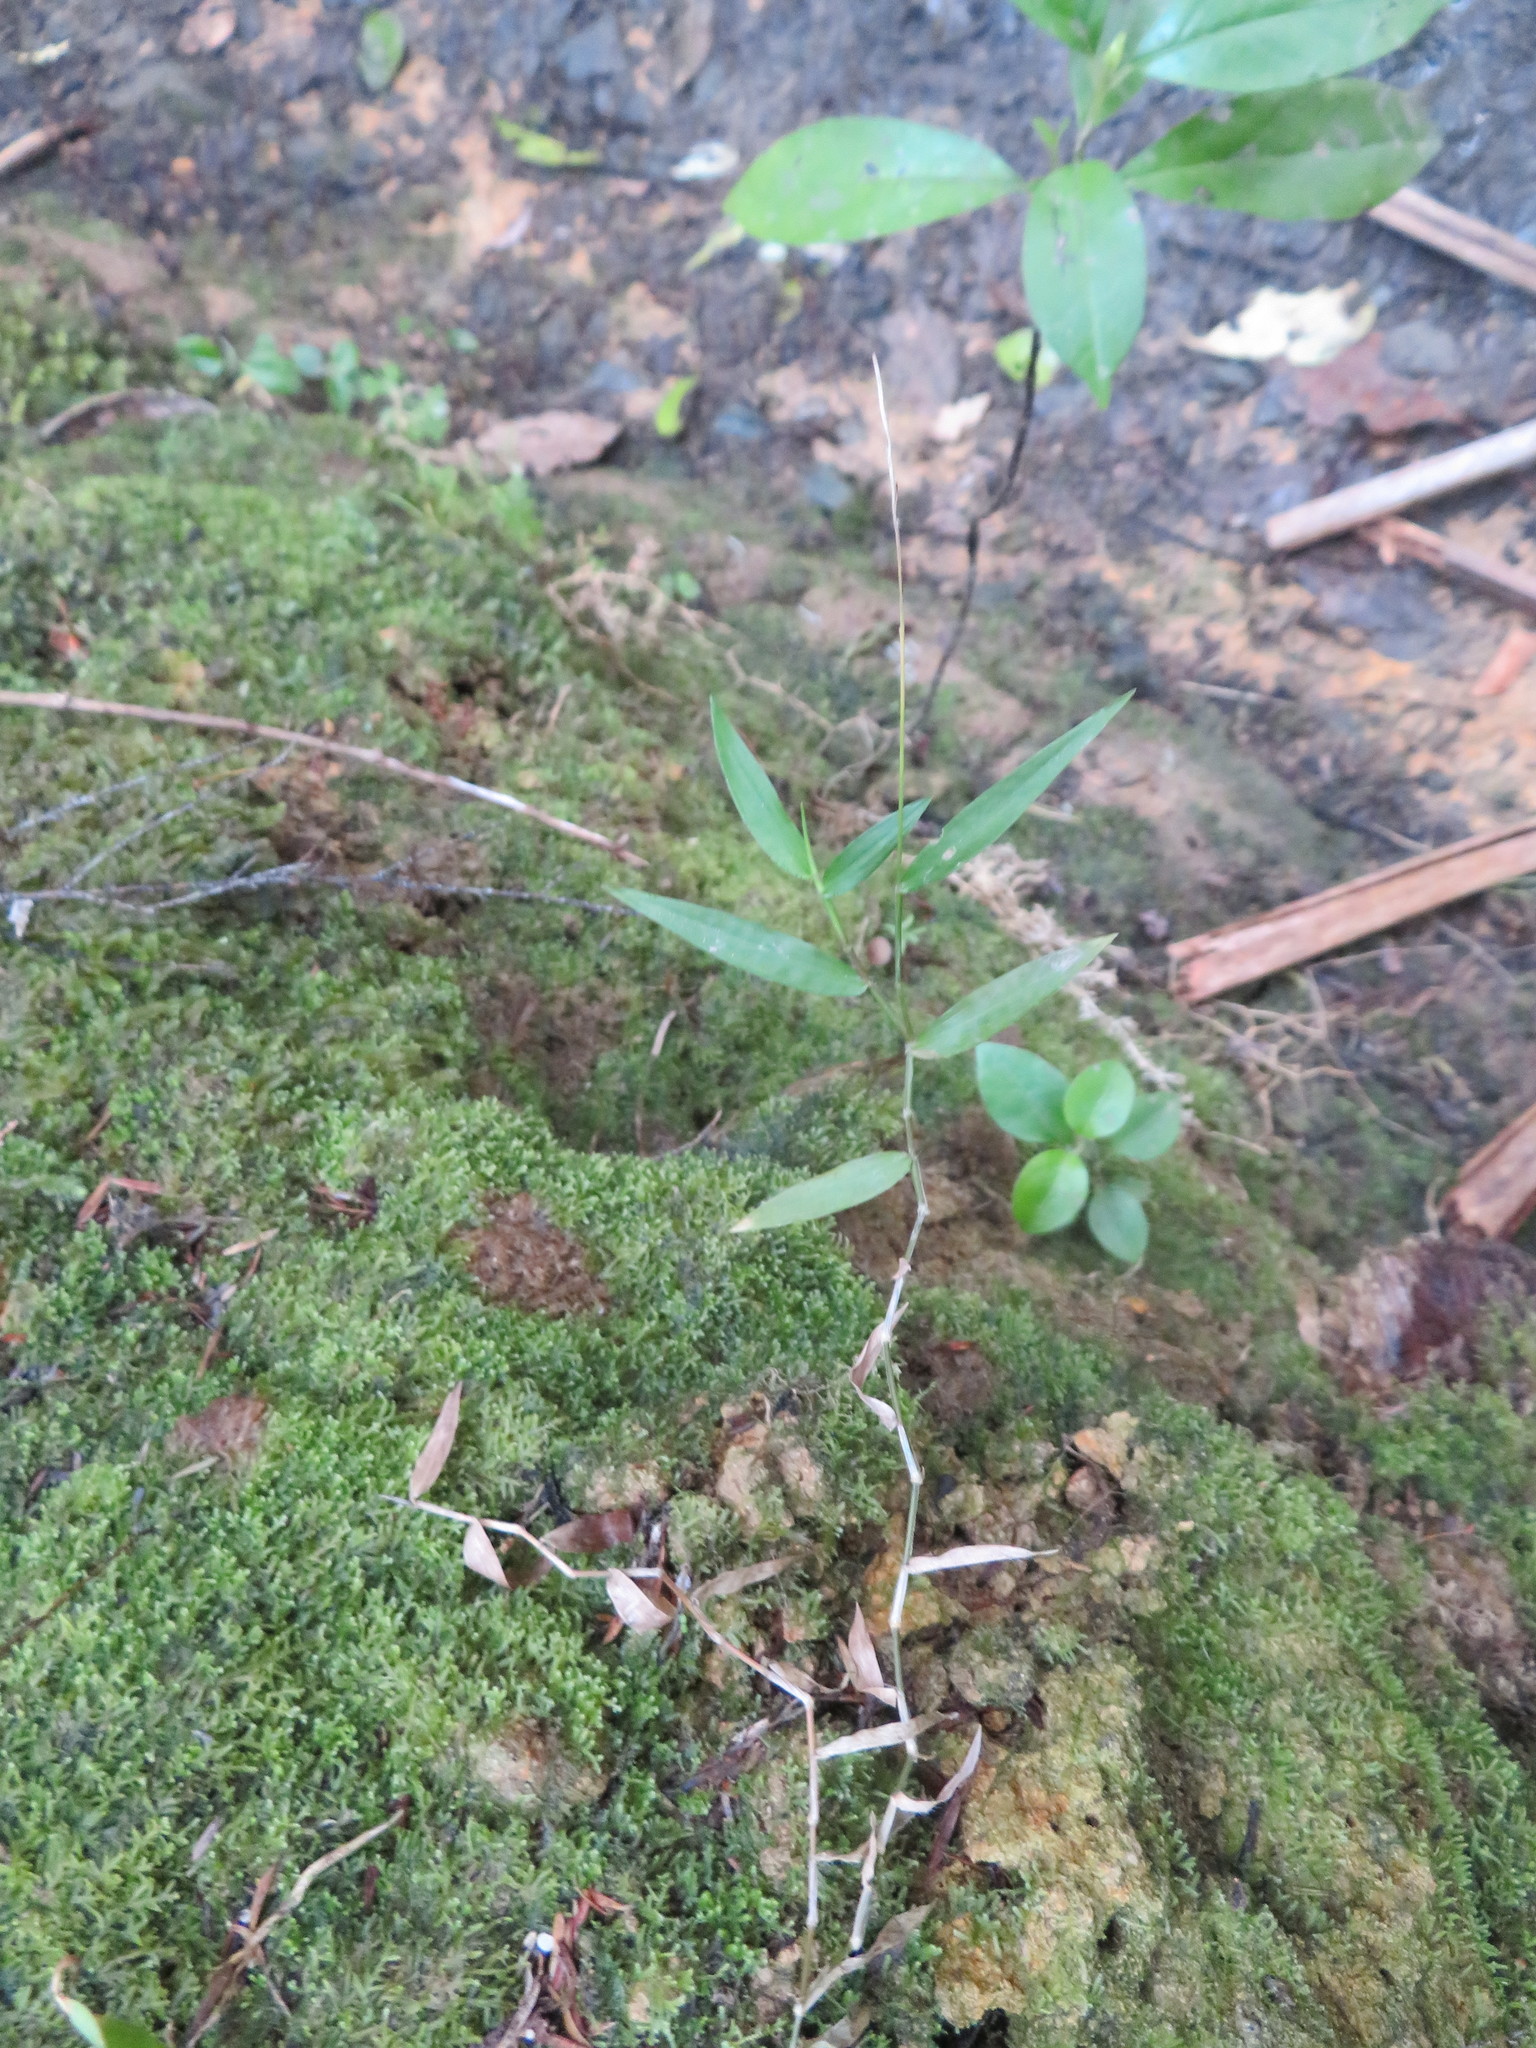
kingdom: Plantae
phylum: Tracheophyta
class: Liliopsida
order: Poales
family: Poaceae
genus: Oplismenus
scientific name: Oplismenus hirtellus
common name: Basketgrass
